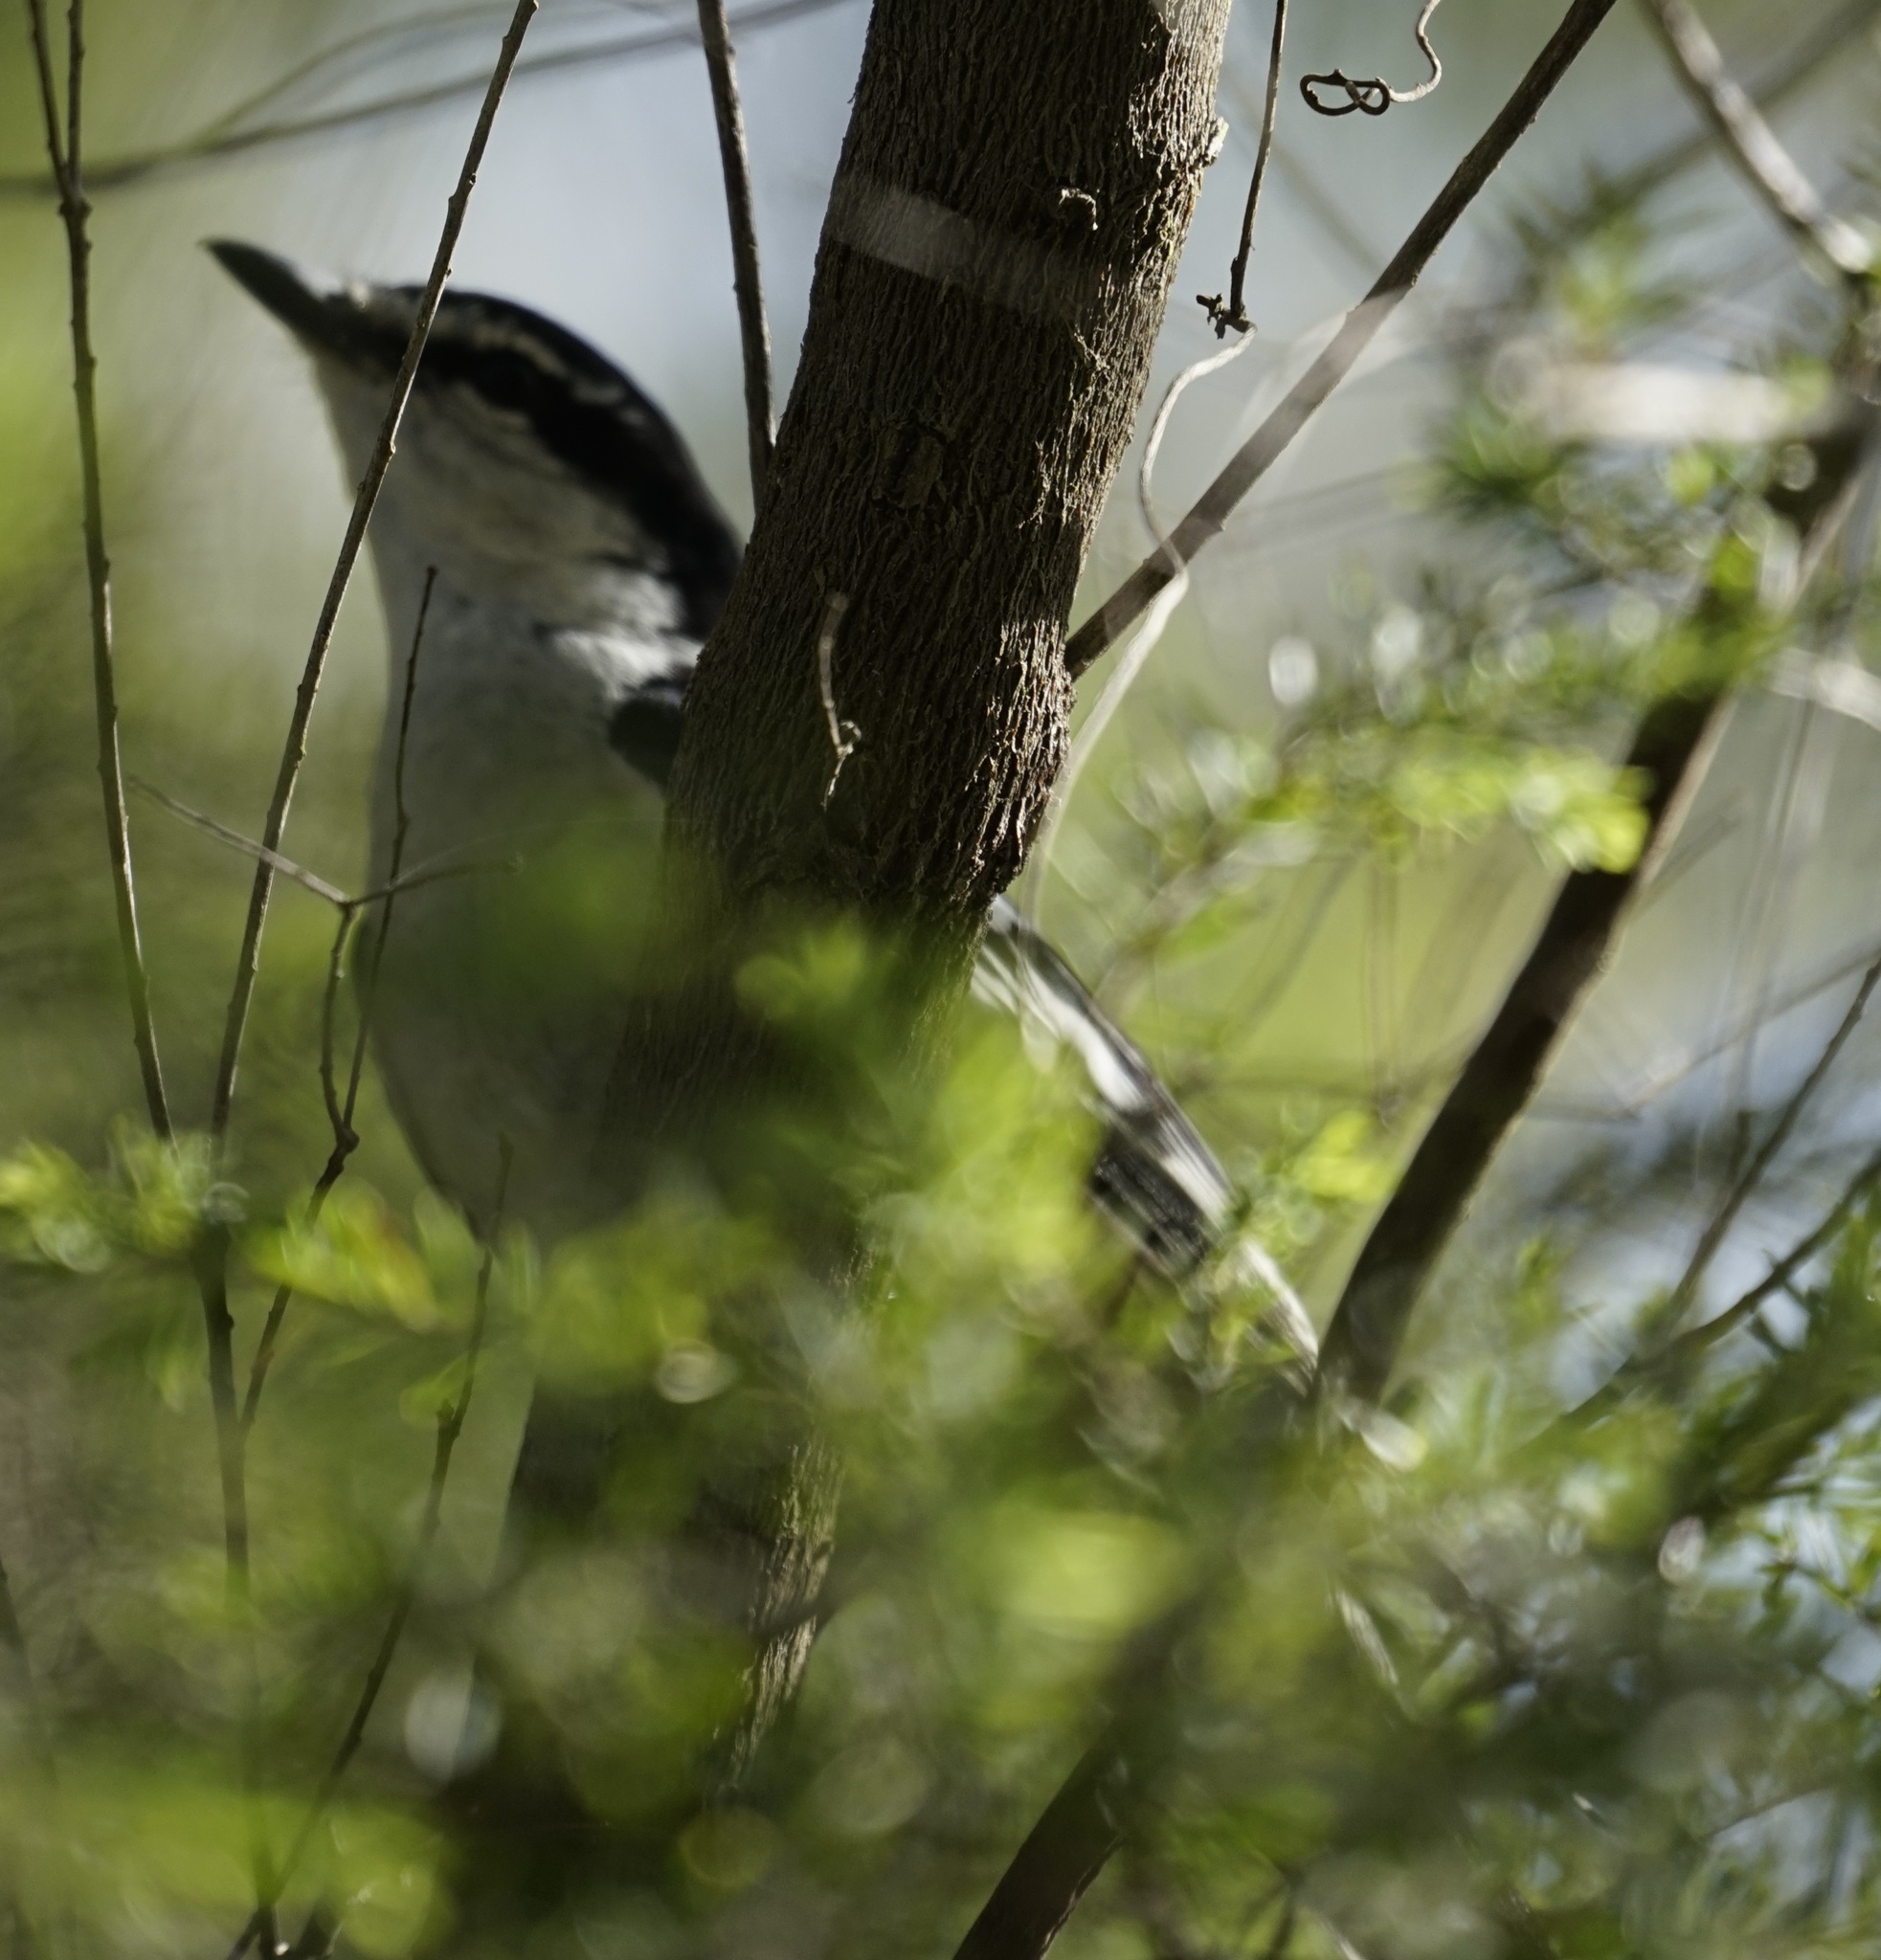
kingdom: Animalia
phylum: Chordata
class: Aves
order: Passeriformes
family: Campephagidae
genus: Lalage
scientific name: Lalage leucomela
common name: Varied triller
